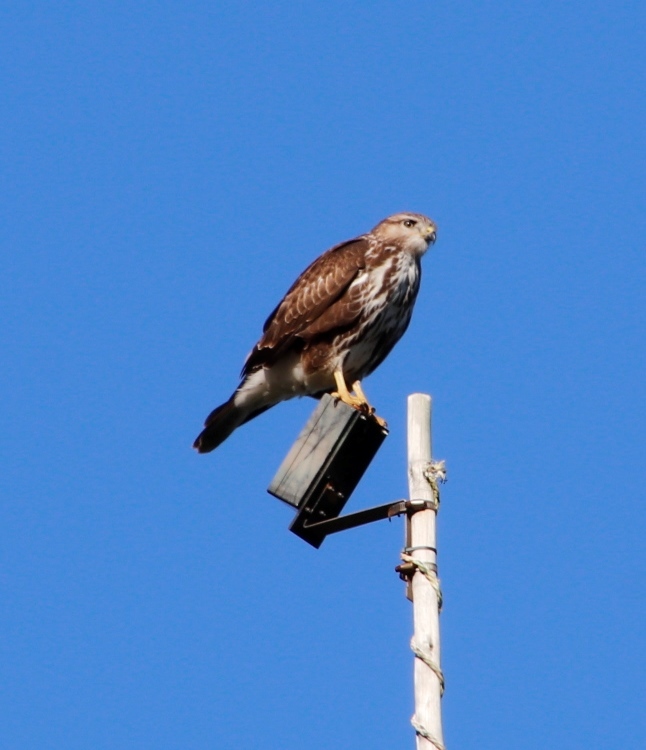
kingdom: Animalia
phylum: Chordata
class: Aves
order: Accipitriformes
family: Accipitridae
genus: Buteo
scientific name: Buteo trizonatus
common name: Forest buzzard
